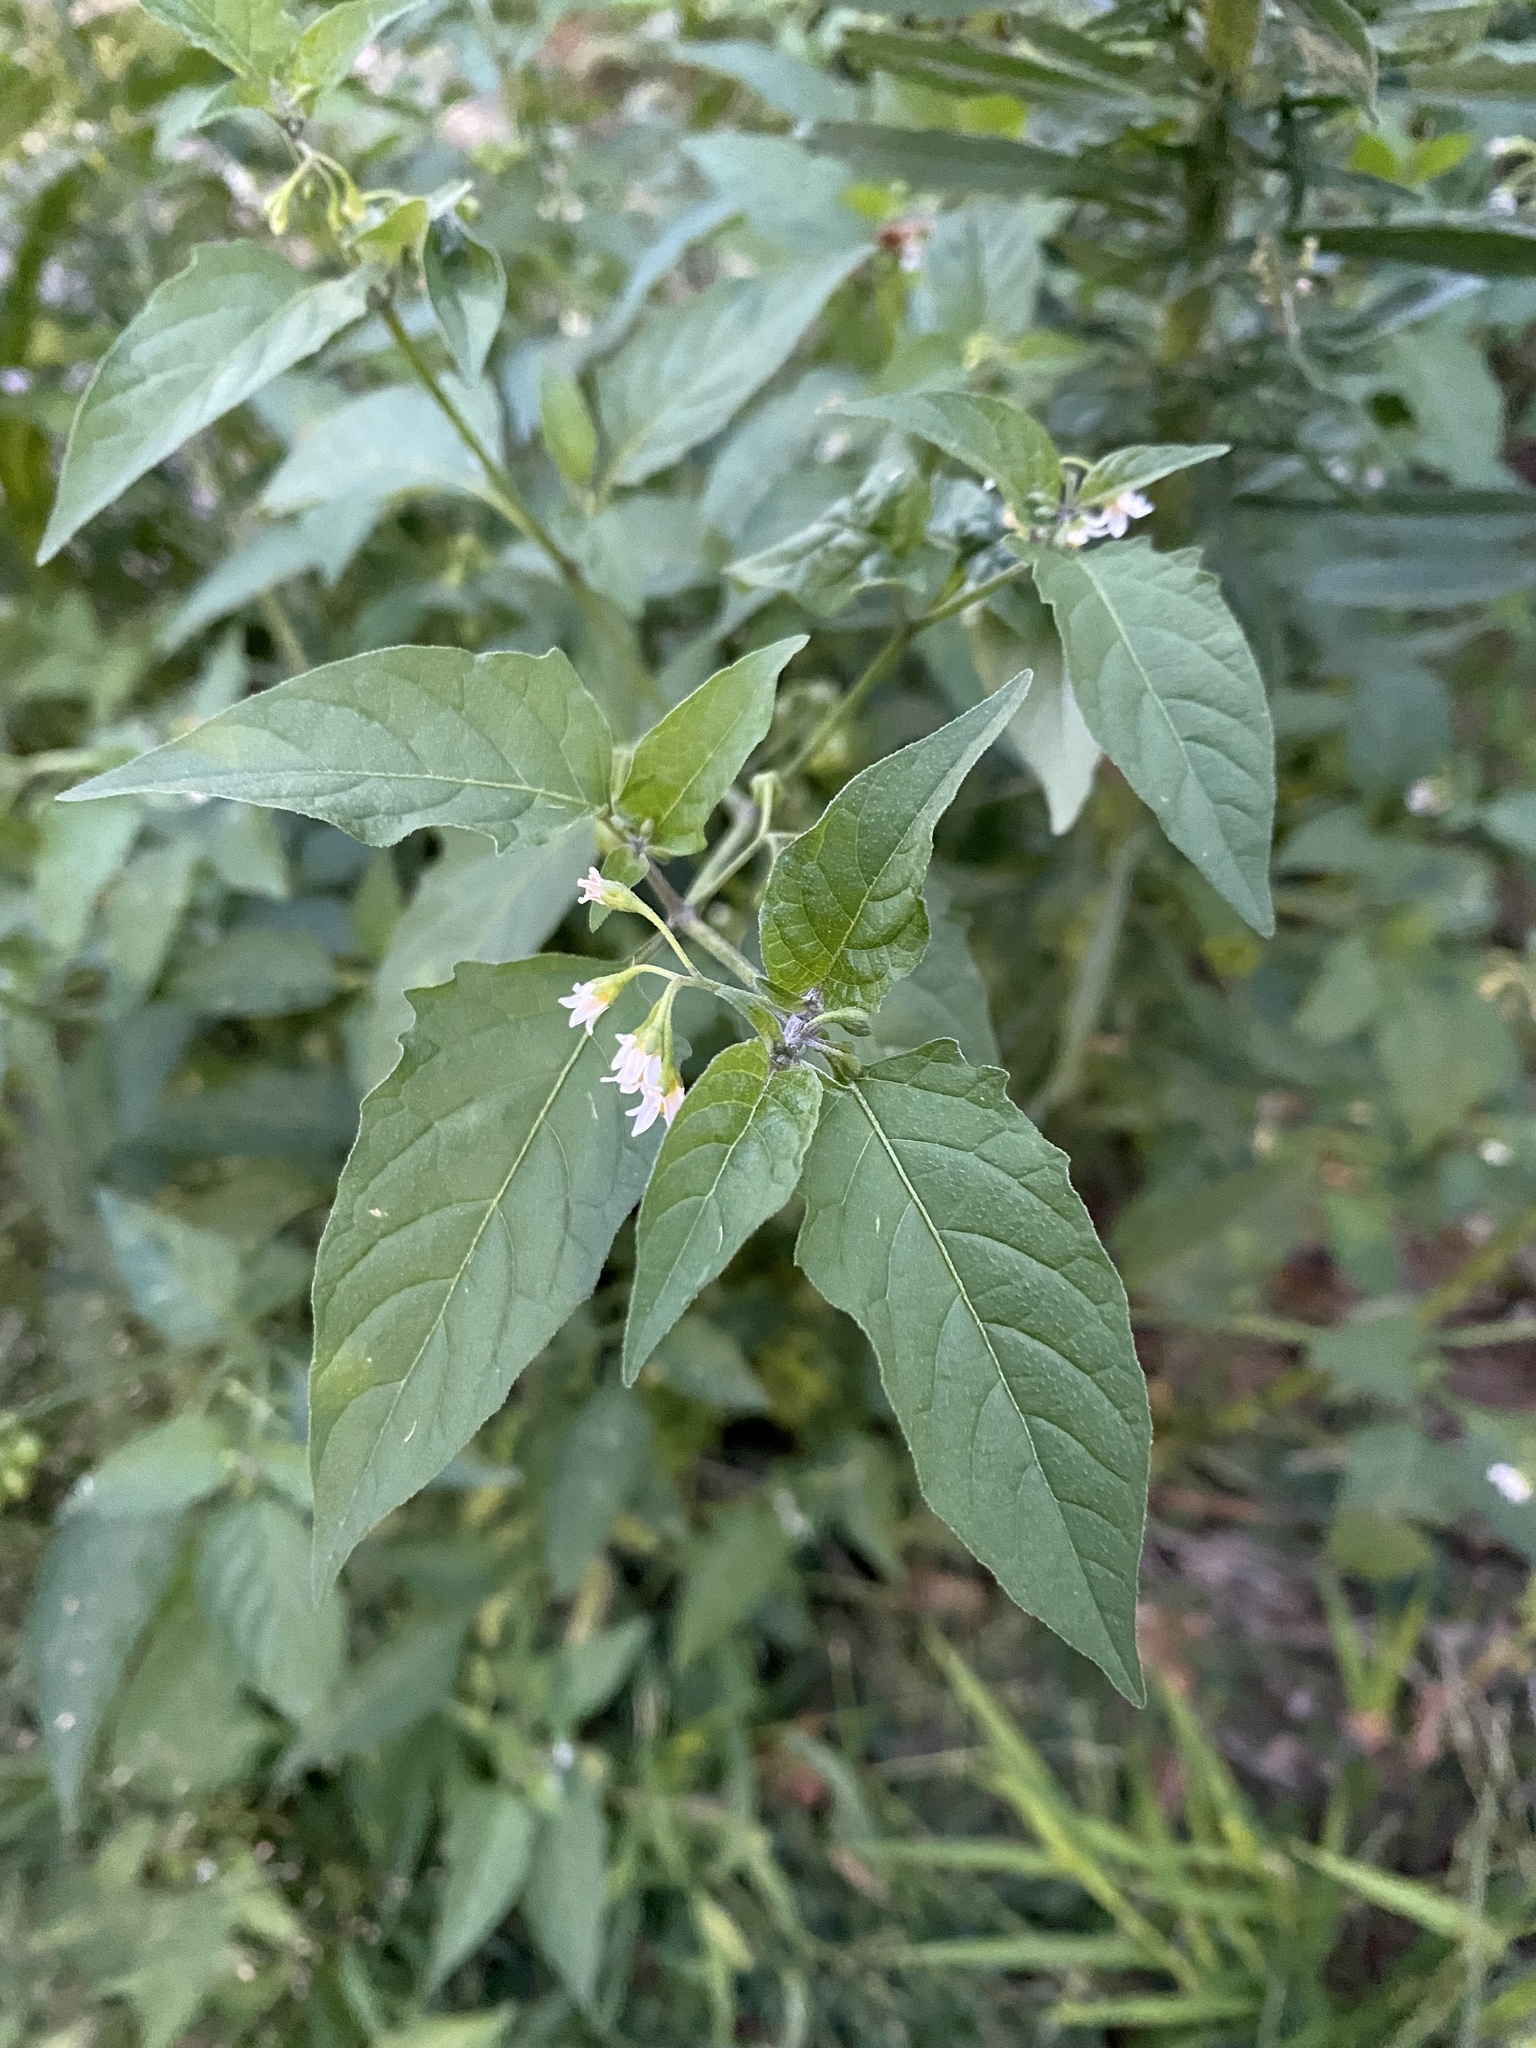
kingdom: Plantae
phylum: Tracheophyta
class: Magnoliopsida
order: Solanales
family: Solanaceae
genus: Solanum
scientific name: Solanum emulans
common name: Eastern black nightshade
